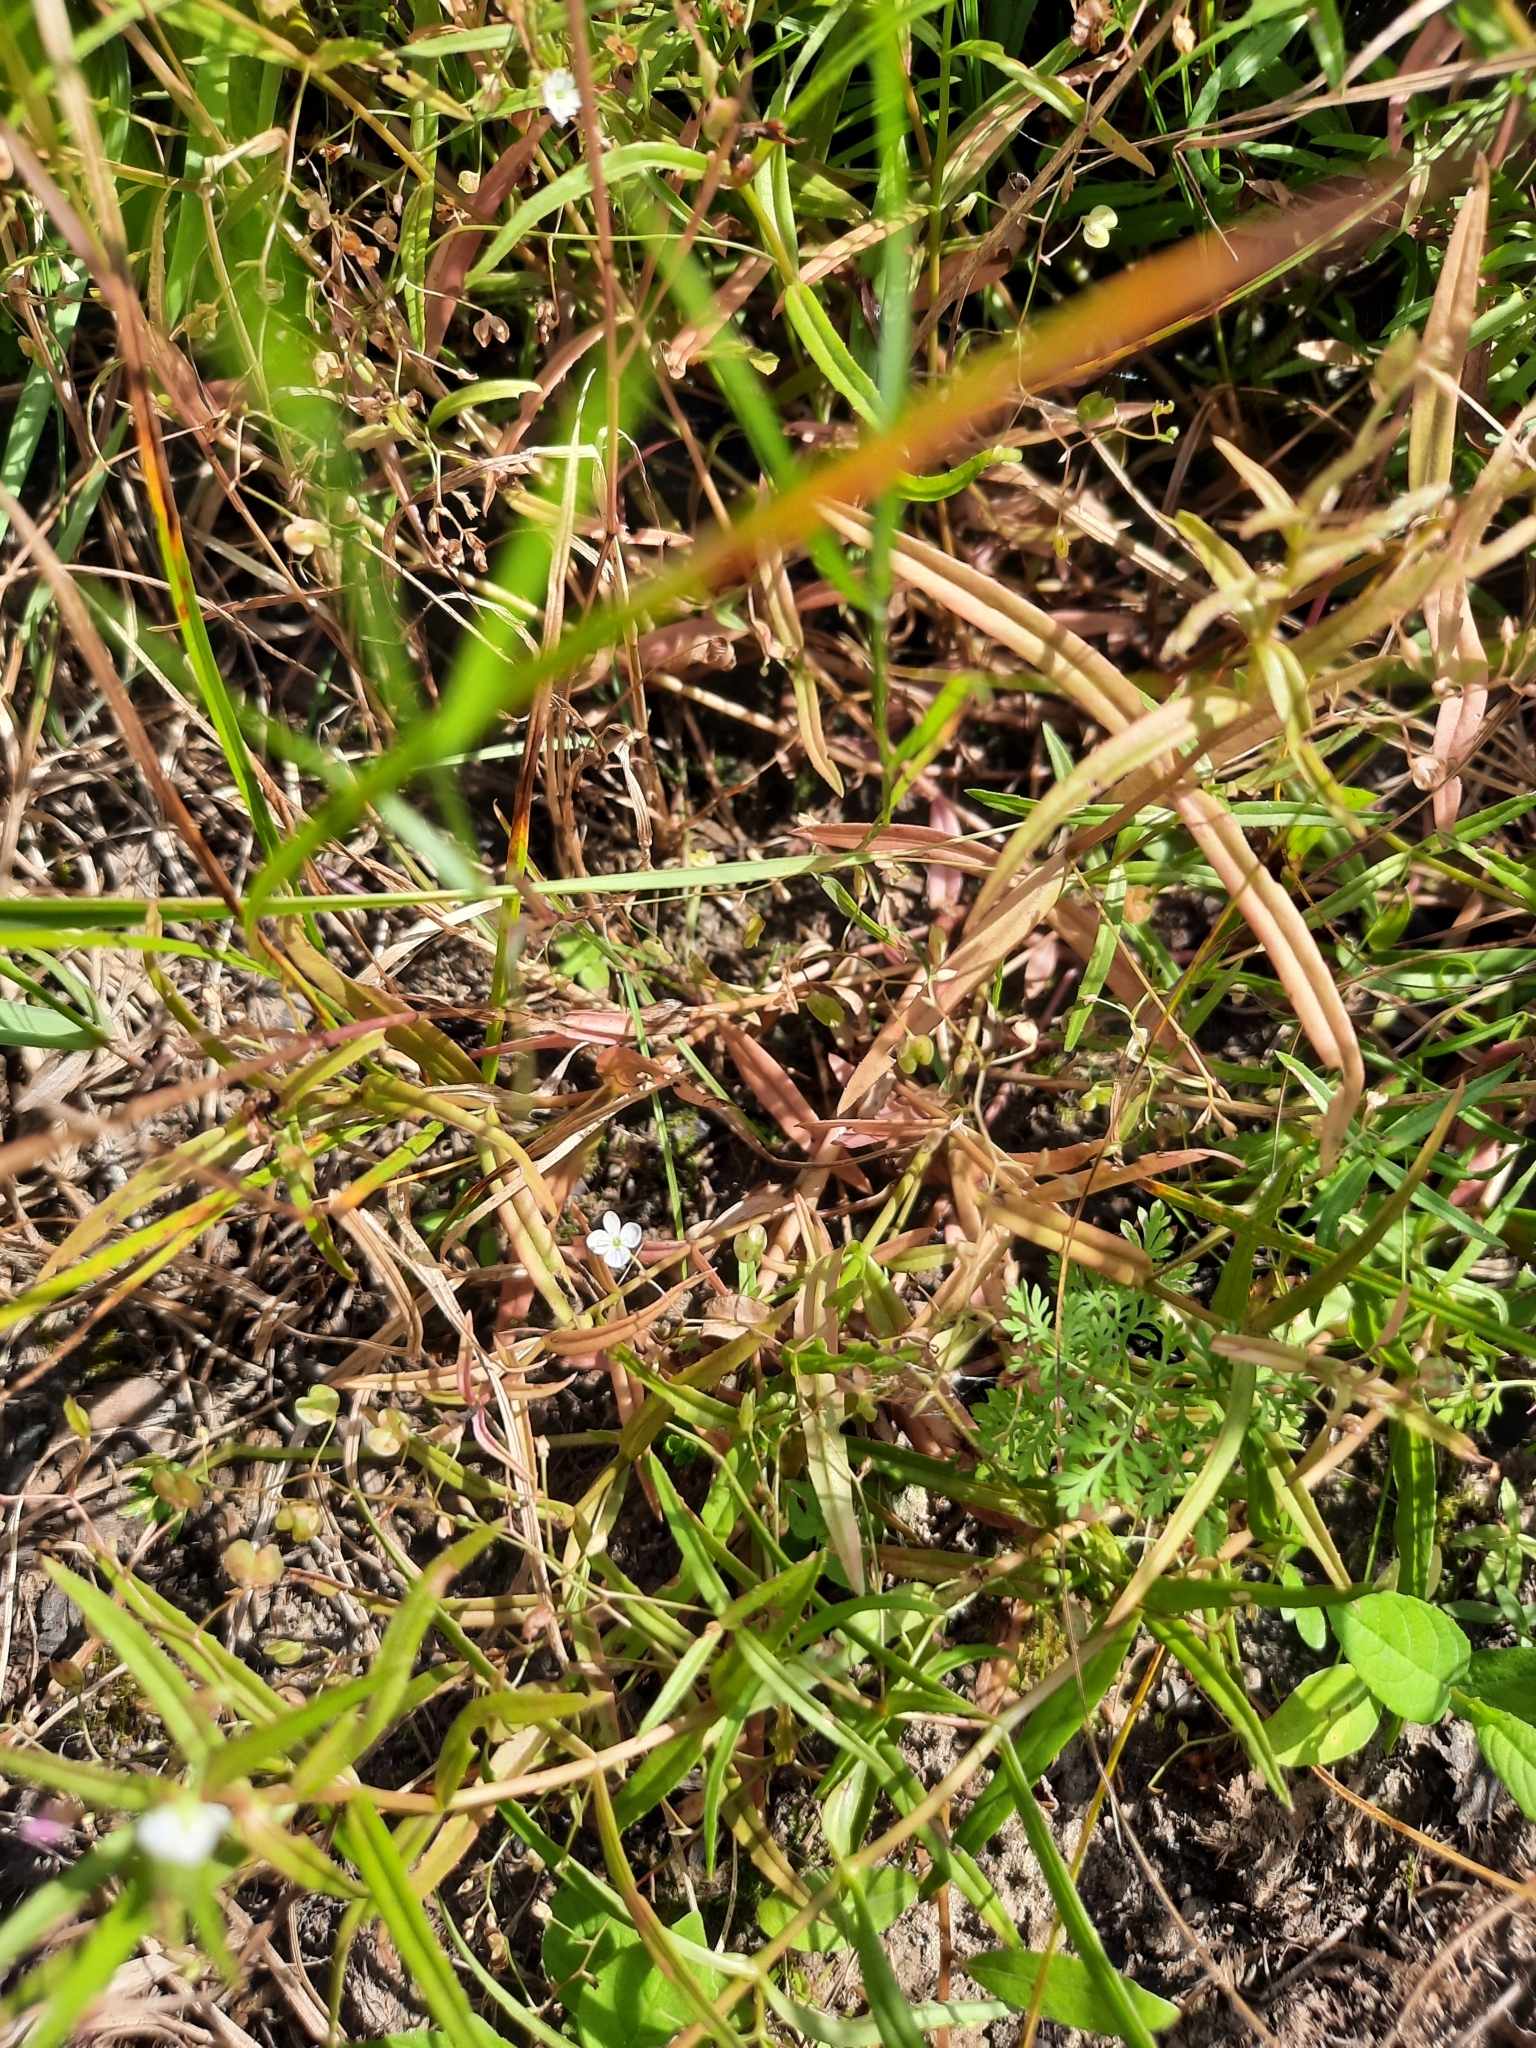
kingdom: Plantae
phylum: Tracheophyta
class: Magnoliopsida
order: Lamiales
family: Plantaginaceae
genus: Veronica
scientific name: Veronica scutellata
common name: Marsh speedwell
